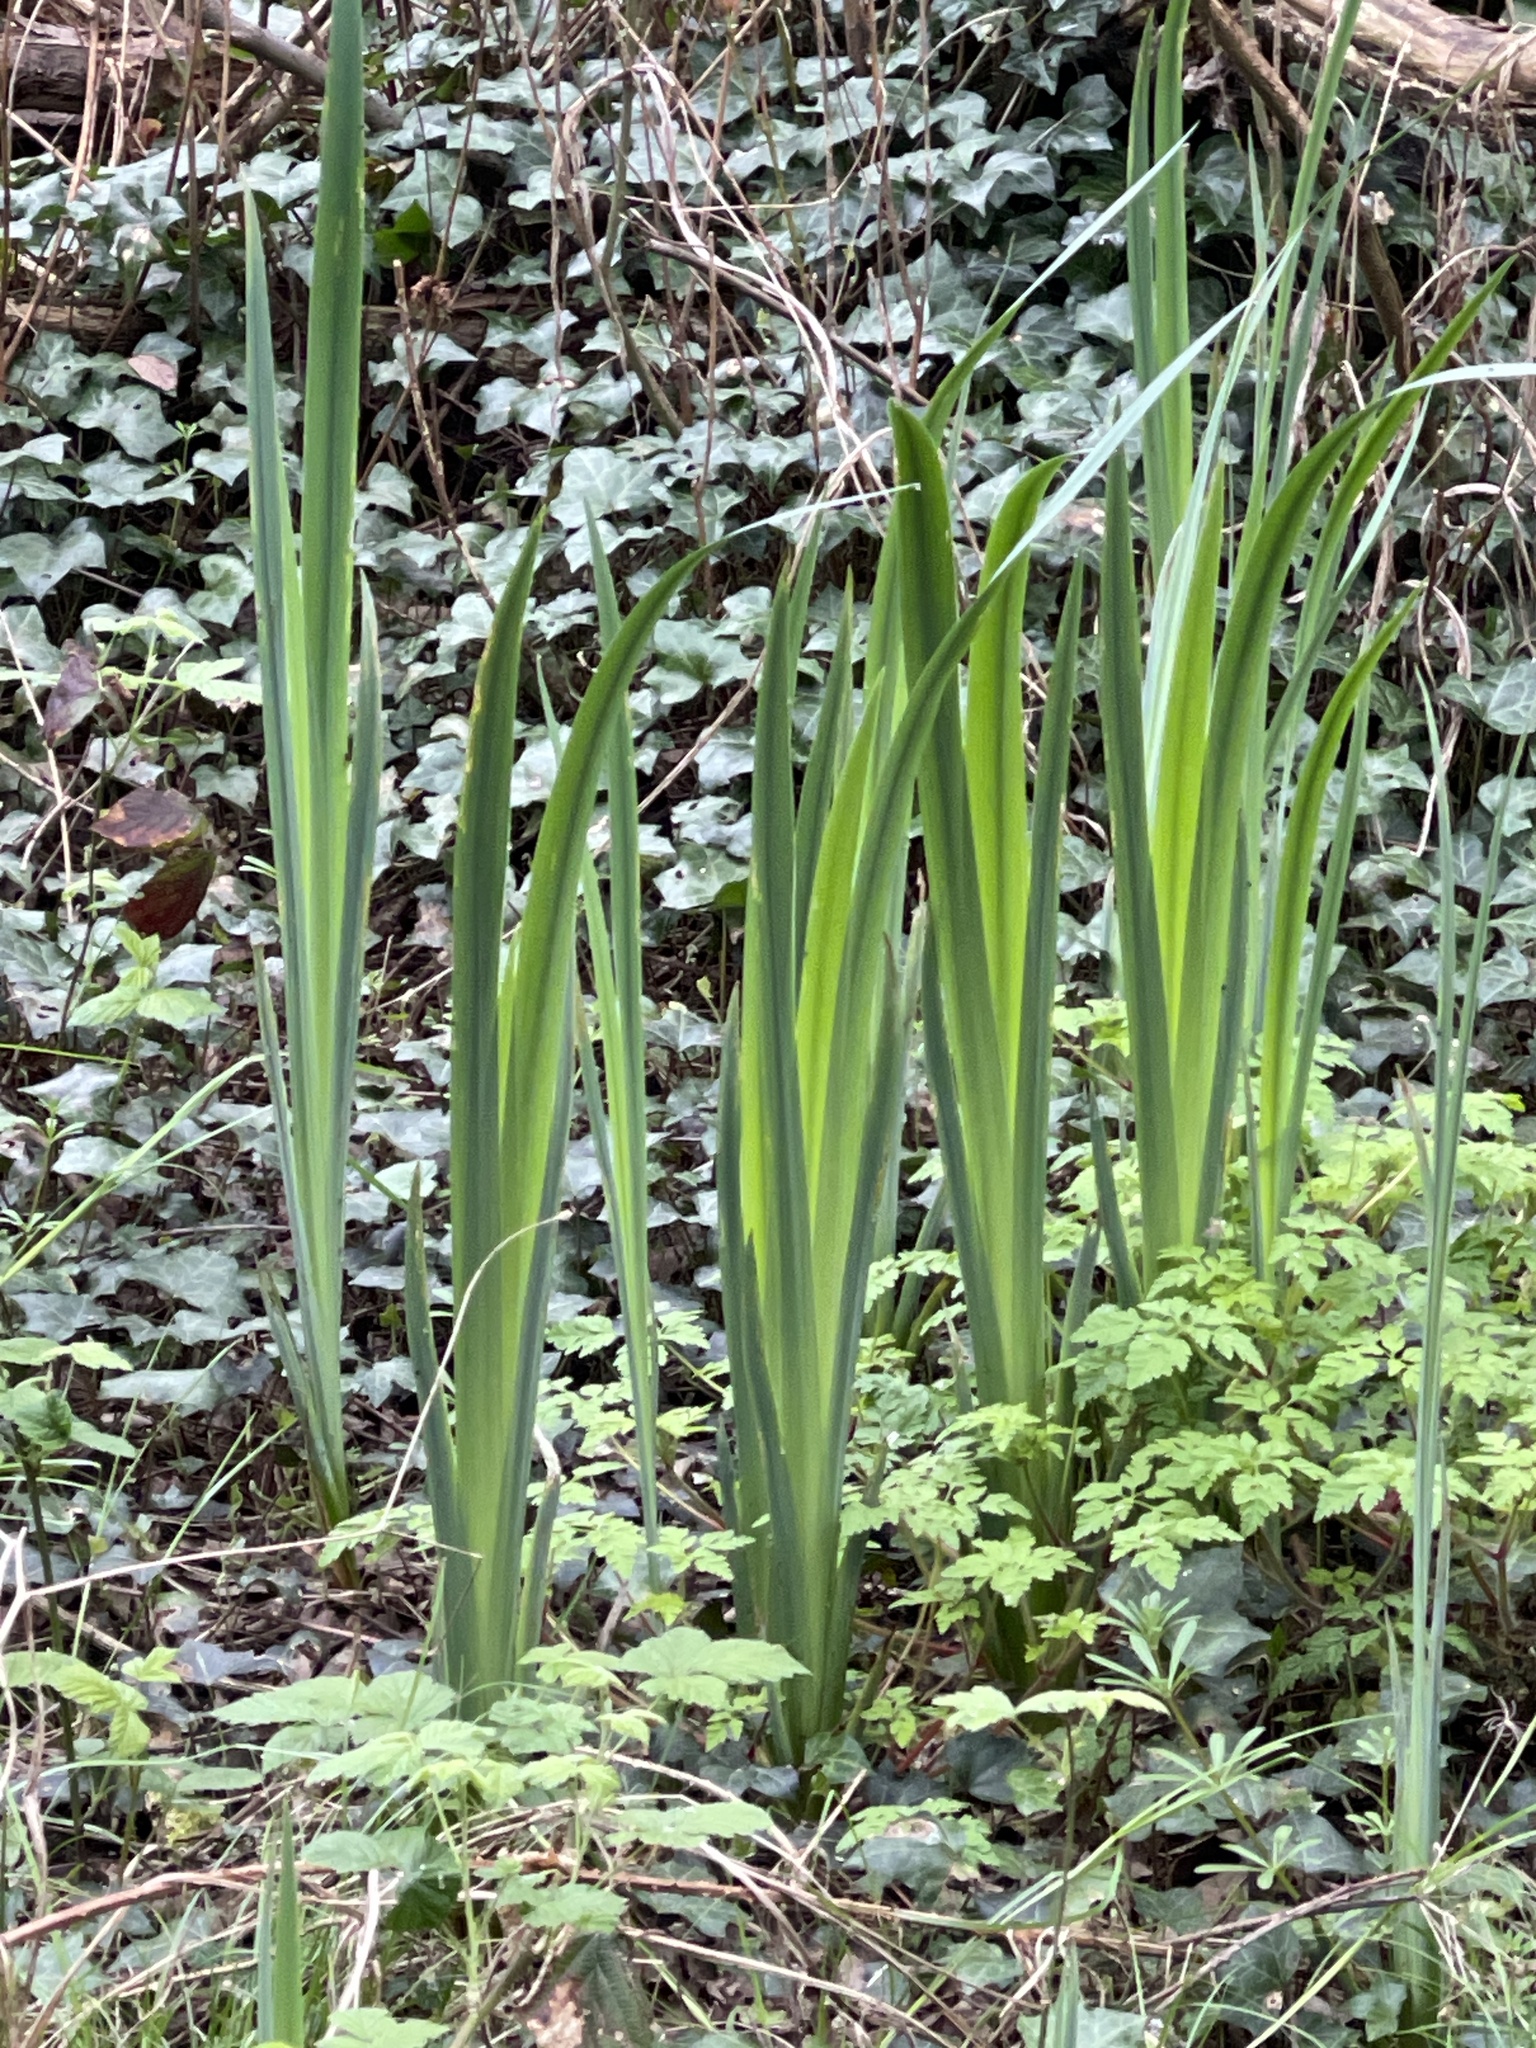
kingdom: Plantae
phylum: Tracheophyta
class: Liliopsida
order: Asparagales
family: Iridaceae
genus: Iris
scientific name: Iris pseudacorus
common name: Yellow flag
